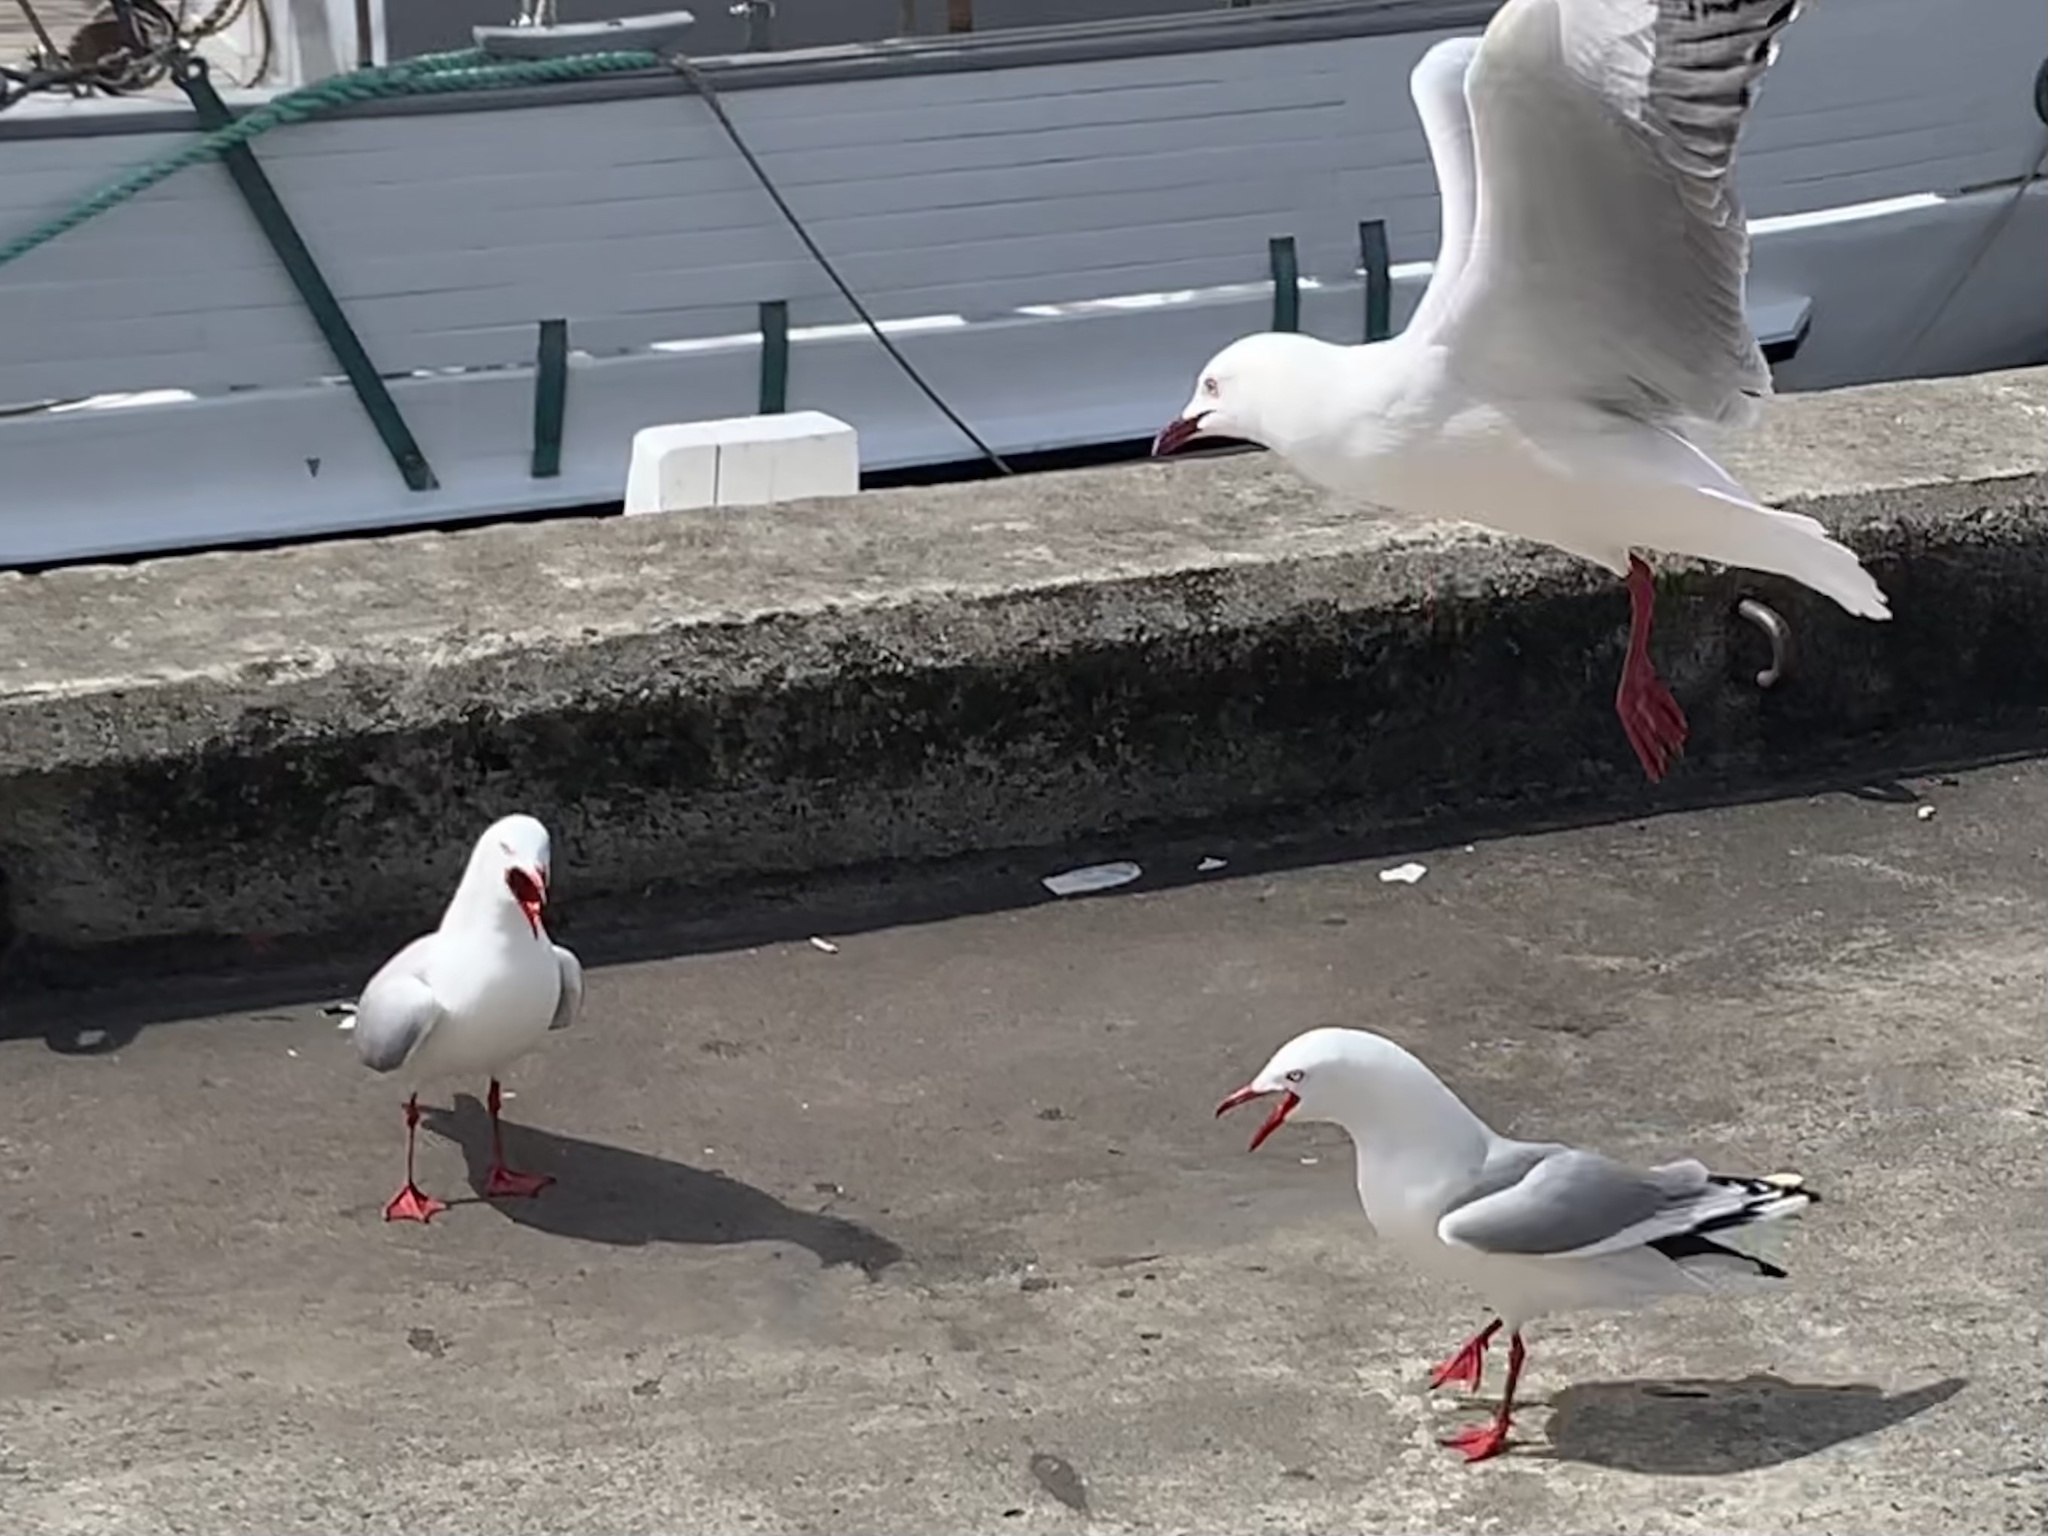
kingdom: Animalia
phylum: Chordata
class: Aves
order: Charadriiformes
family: Laridae
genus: Chroicocephalus
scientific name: Chroicocephalus novaehollandiae
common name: Silver gull
